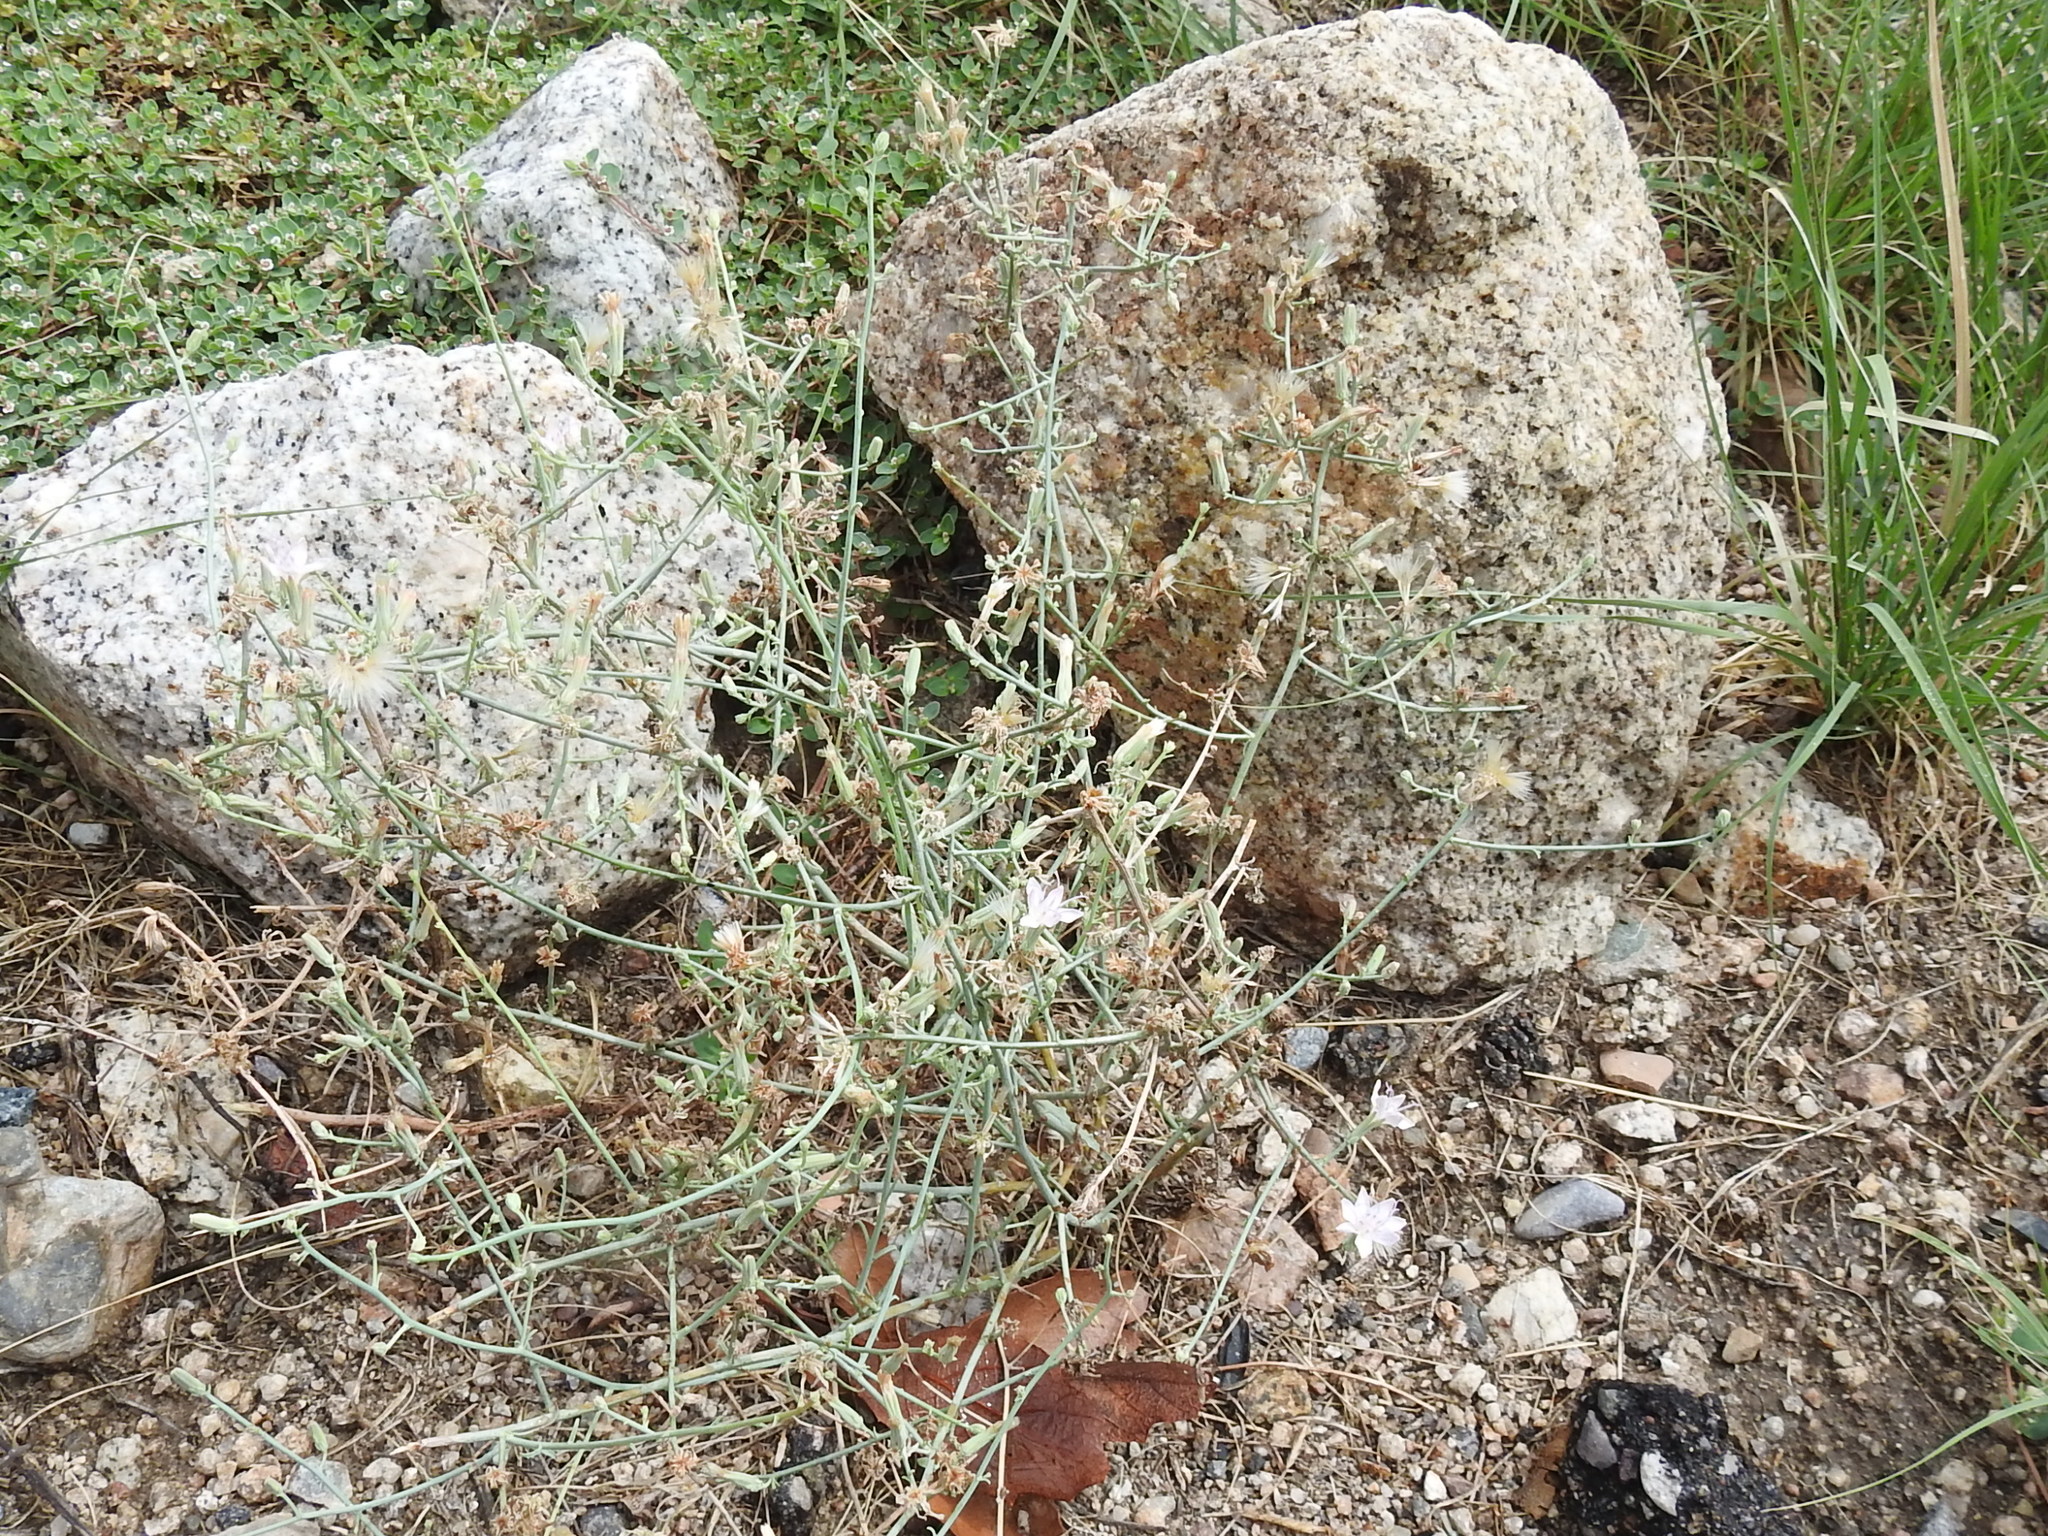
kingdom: Plantae
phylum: Tracheophyta
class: Magnoliopsida
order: Asterales
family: Asteraceae
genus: Stephanomeria
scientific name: Stephanomeria pauciflora
